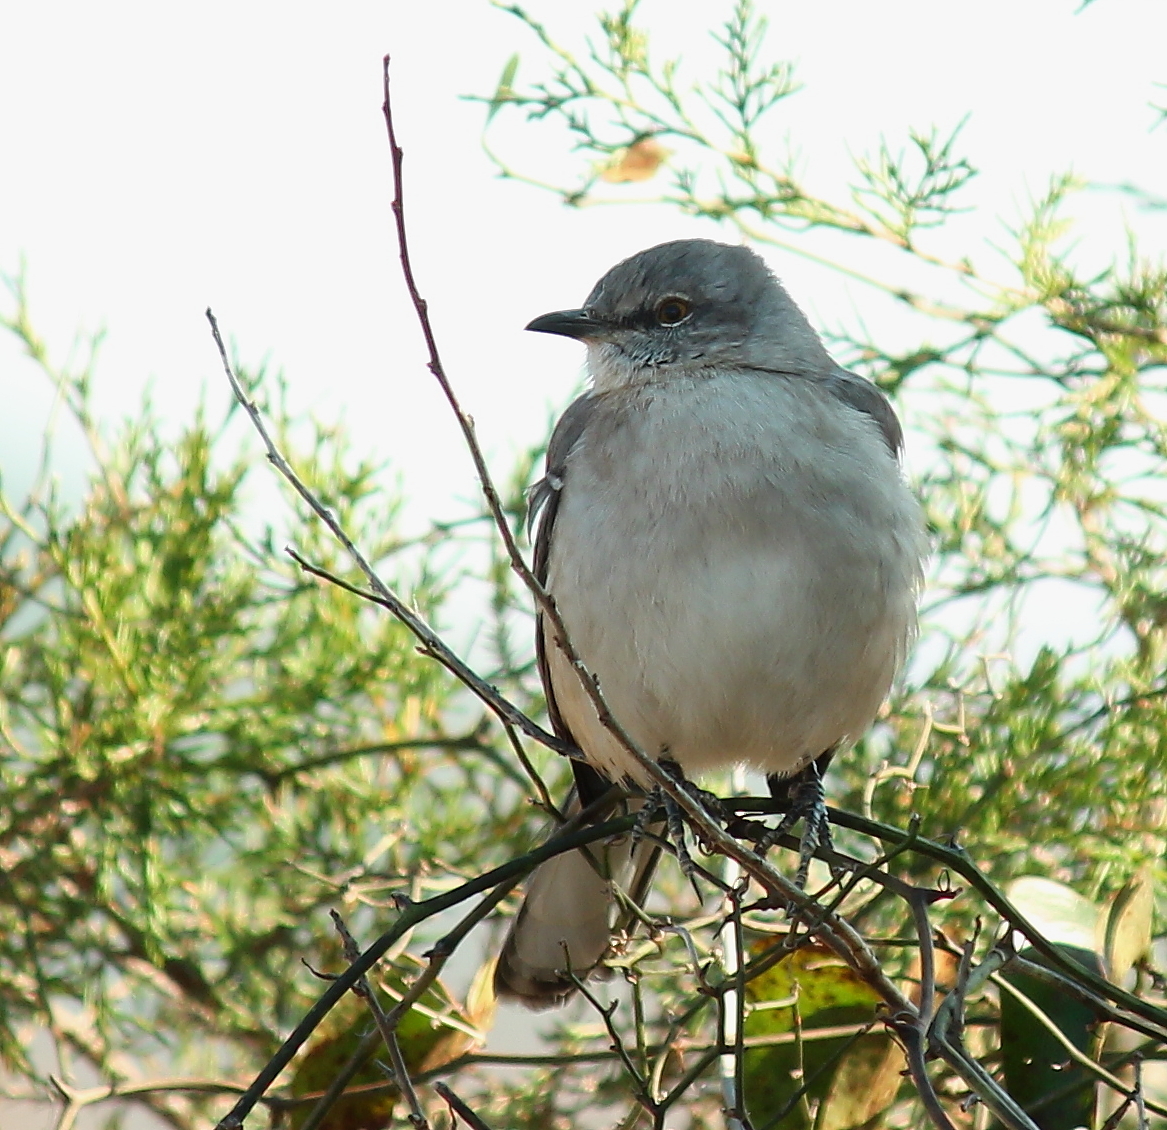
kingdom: Animalia
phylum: Chordata
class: Aves
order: Passeriformes
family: Mimidae
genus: Mimus
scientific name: Mimus polyglottos
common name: Northern mockingbird
